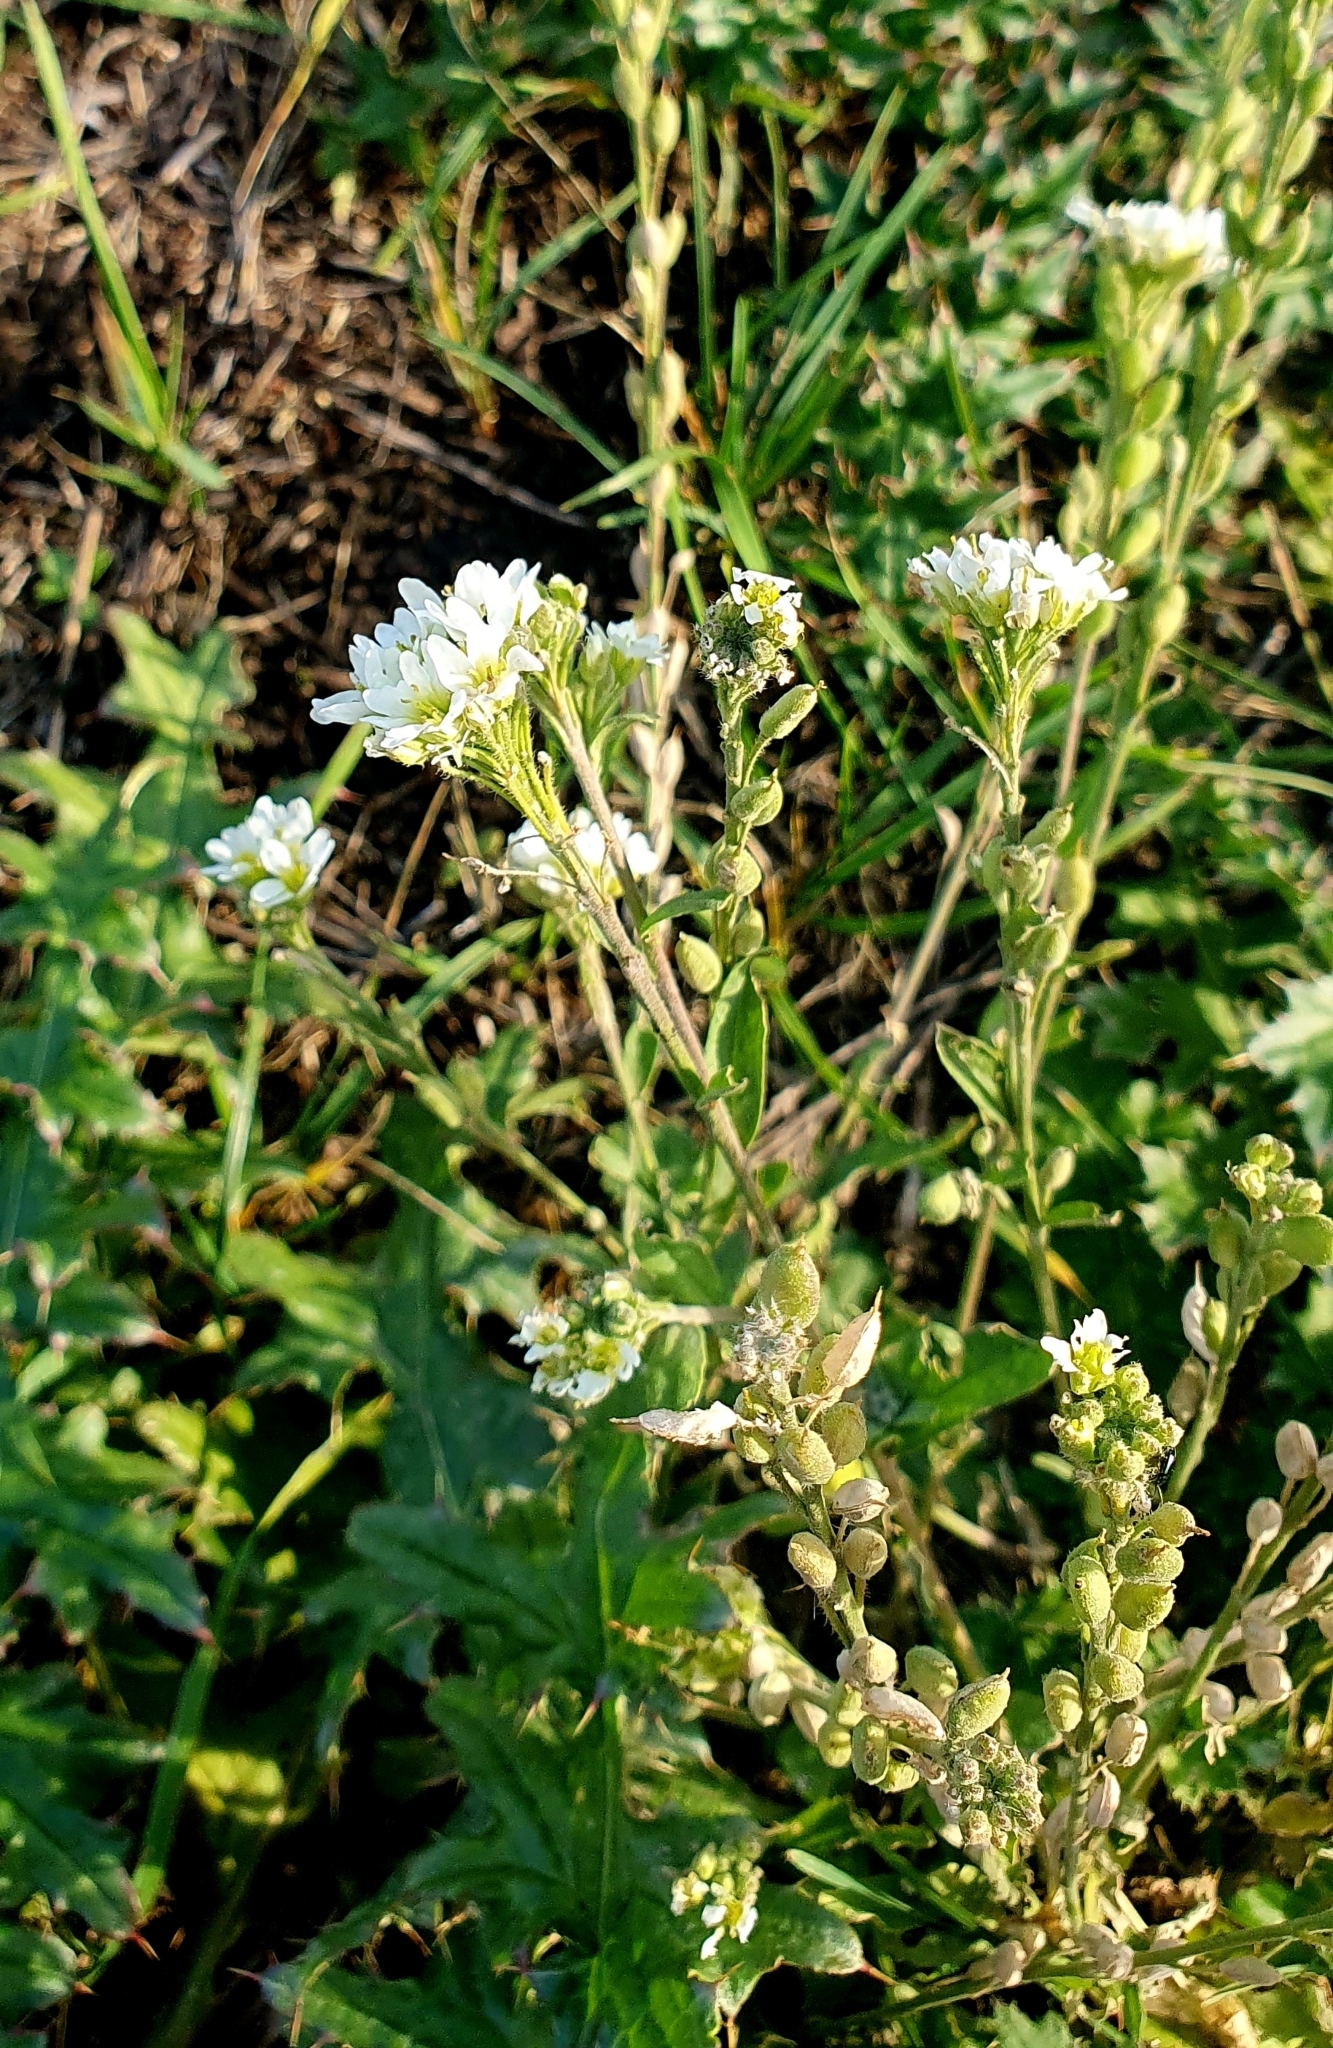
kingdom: Plantae
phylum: Tracheophyta
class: Magnoliopsida
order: Brassicales
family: Brassicaceae
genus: Berteroa
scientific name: Berteroa incana
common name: Hoary alison
